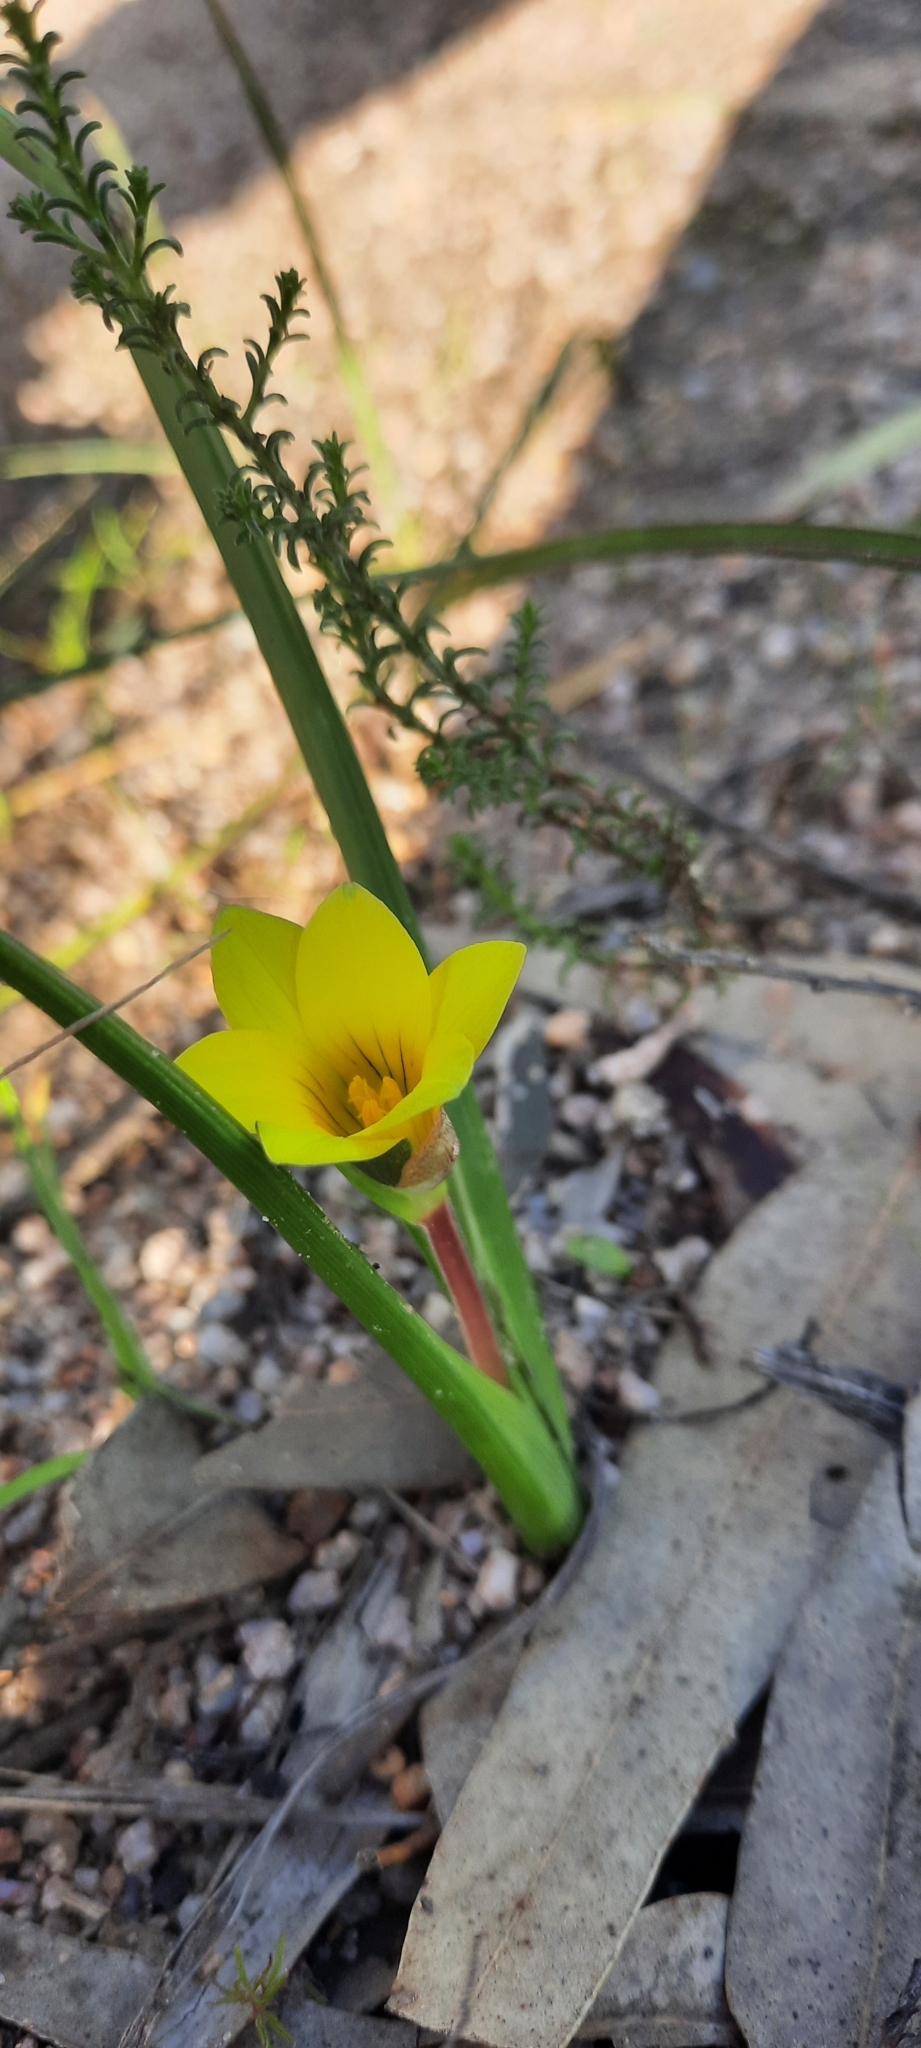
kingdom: Plantae
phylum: Tracheophyta
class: Liliopsida
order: Asparagales
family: Iridaceae
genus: Romulea
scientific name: Romulea flava
